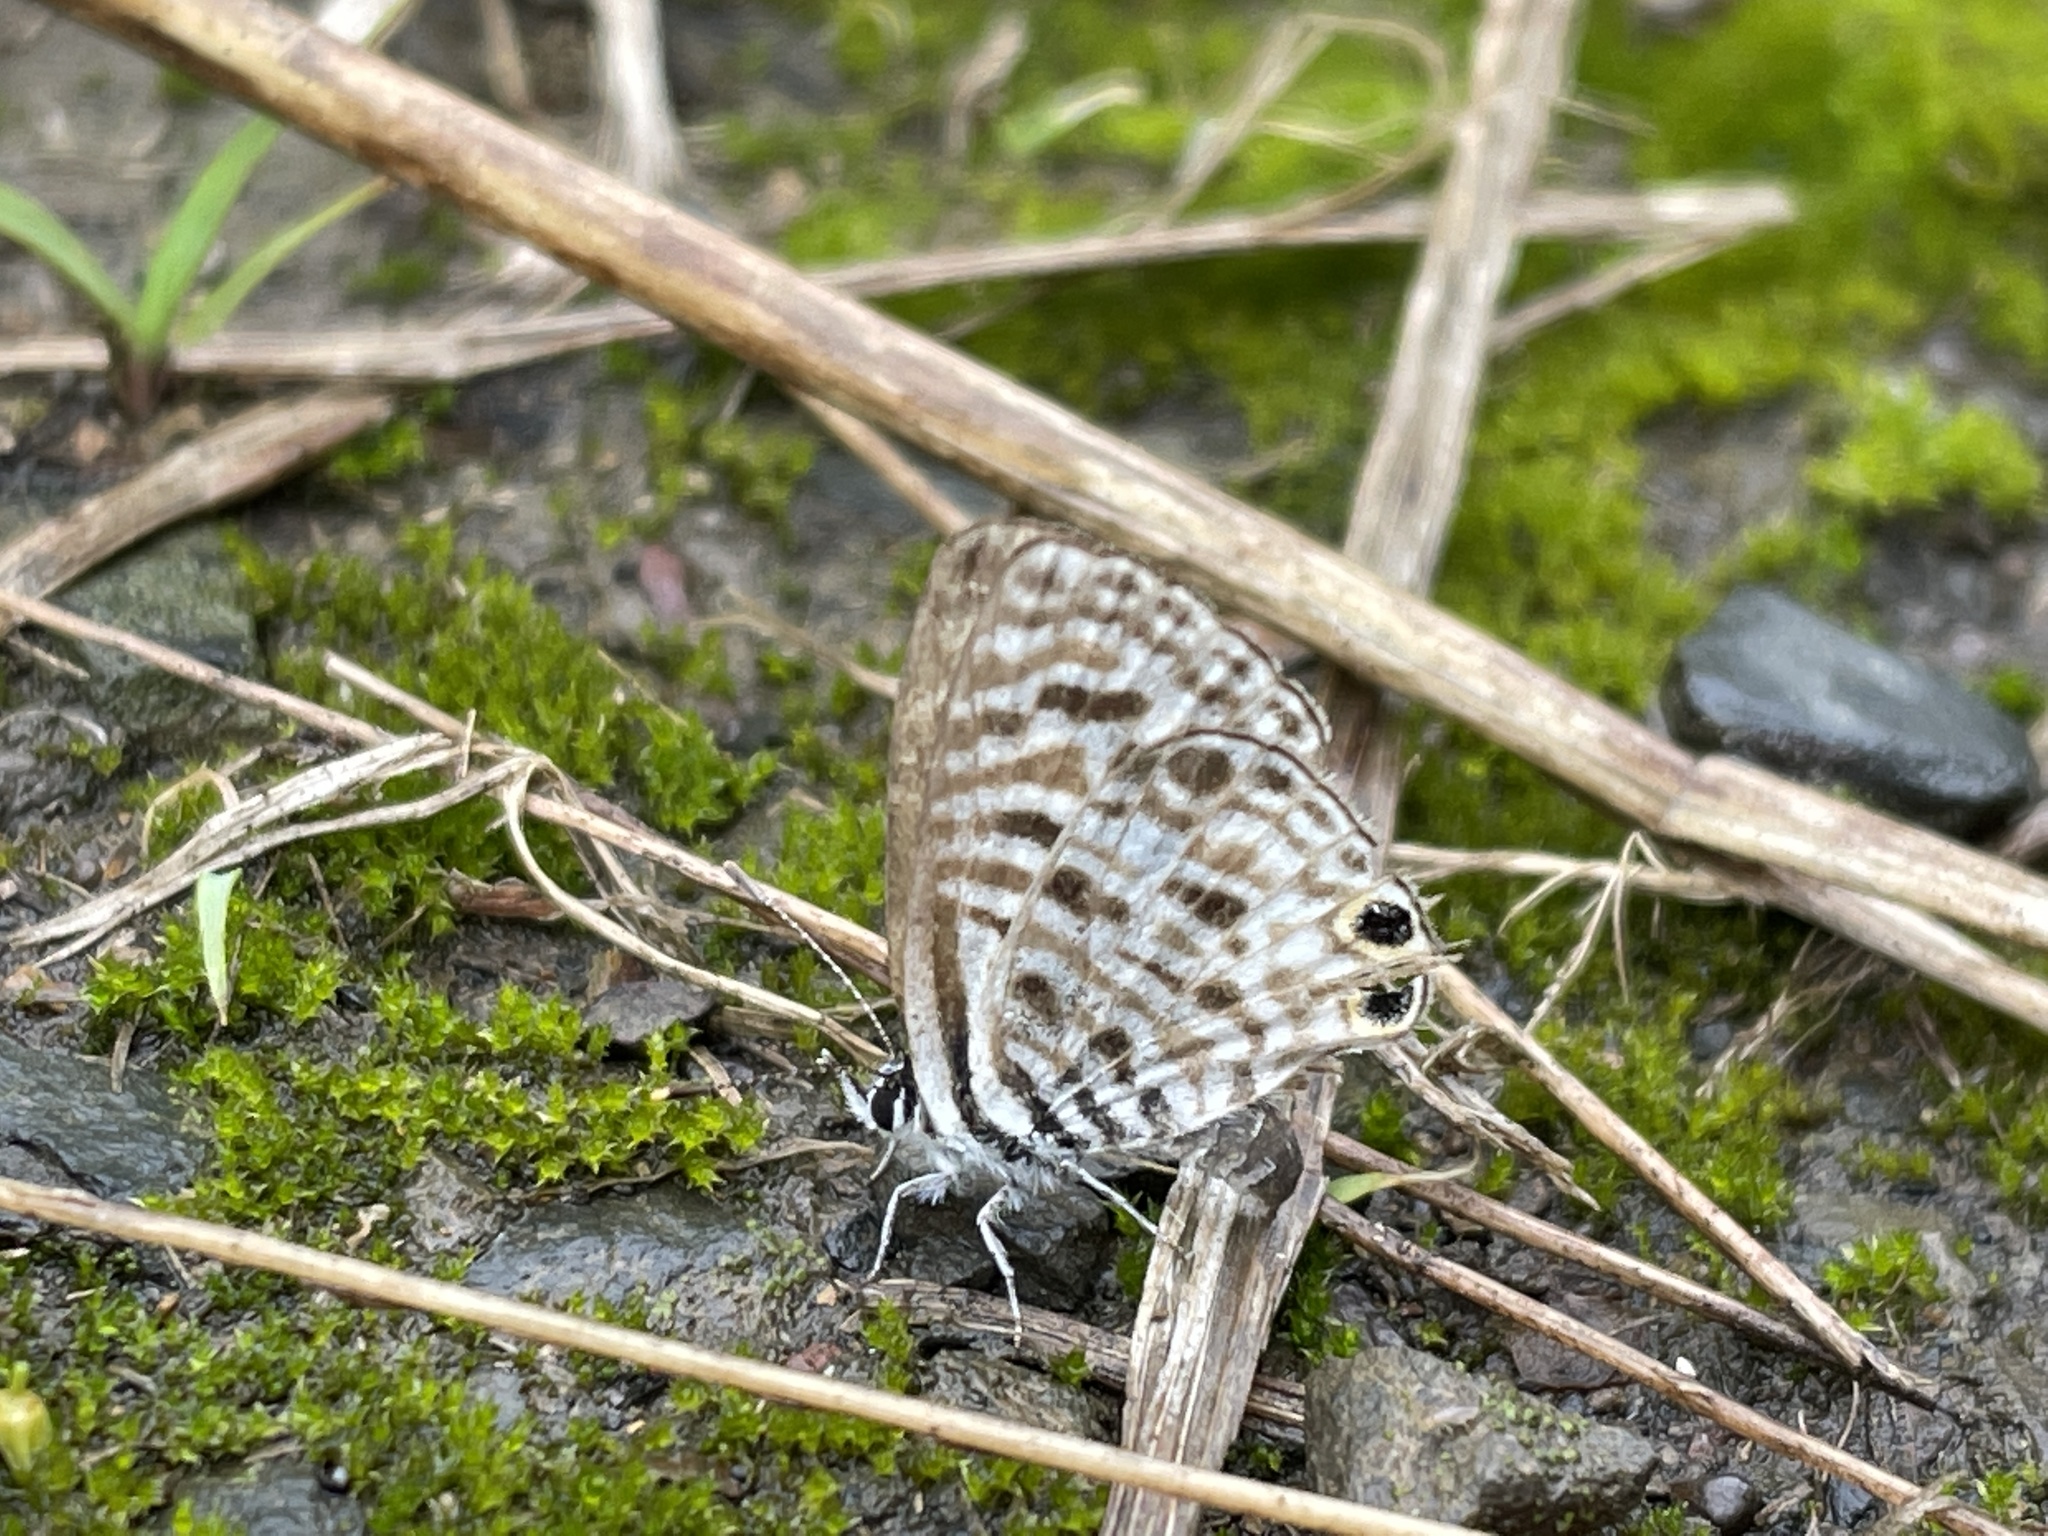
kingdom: Animalia
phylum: Arthropoda
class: Insecta
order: Lepidoptera
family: Lycaenidae
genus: Leptotes
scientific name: Leptotes
